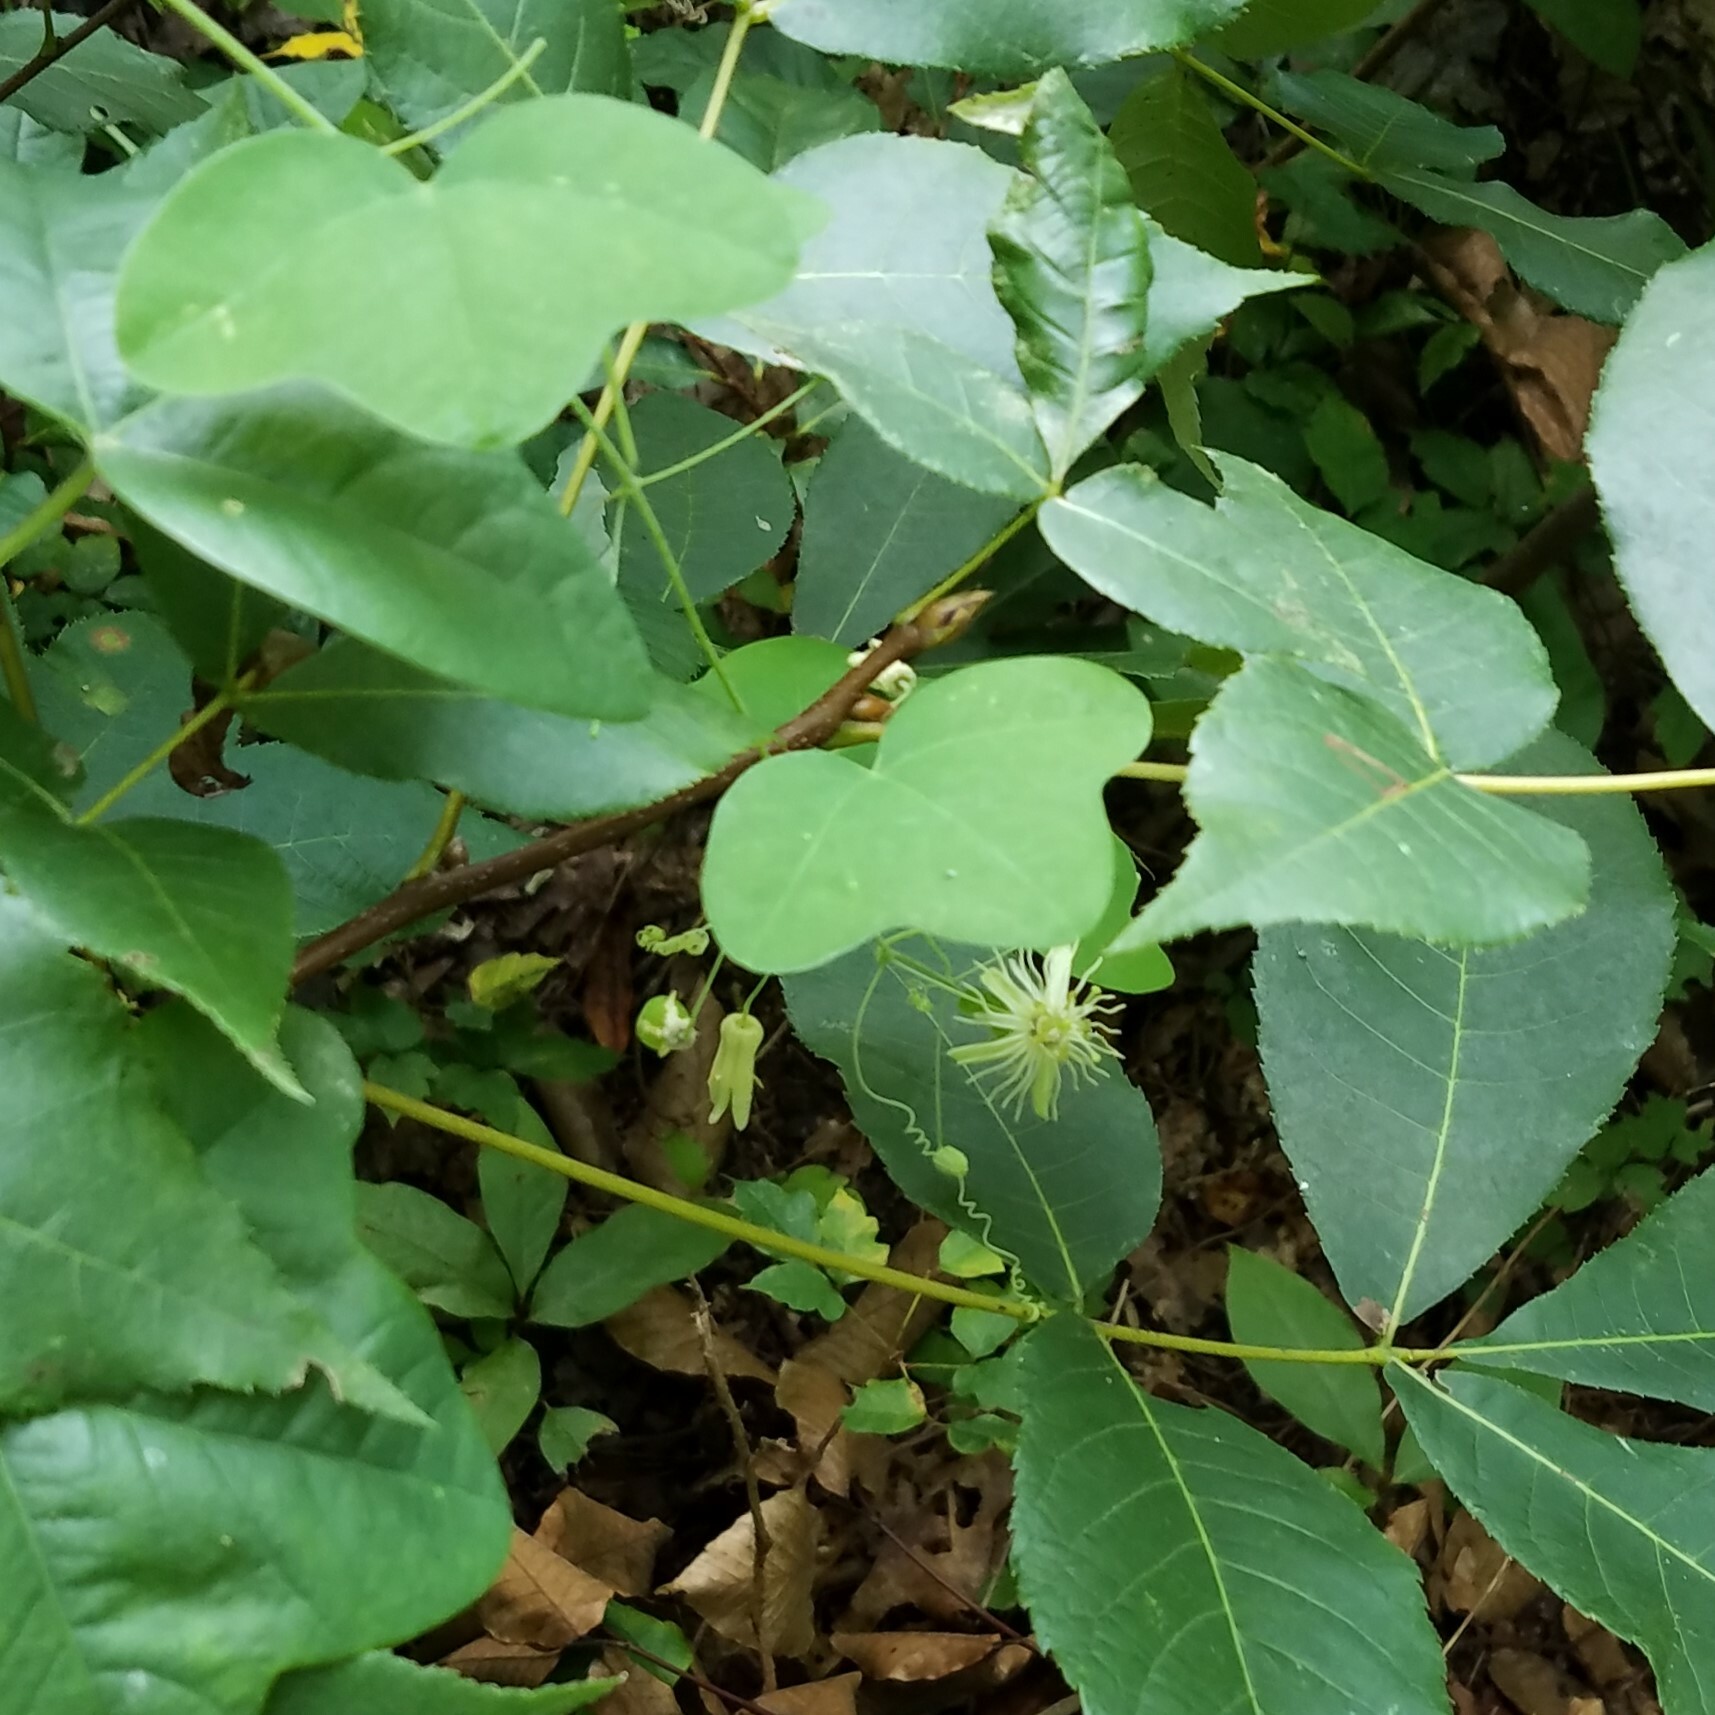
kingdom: Plantae
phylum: Tracheophyta
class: Magnoliopsida
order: Malpighiales
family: Passifloraceae
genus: Passiflora
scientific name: Passiflora lutea
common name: Yellow passionflower
